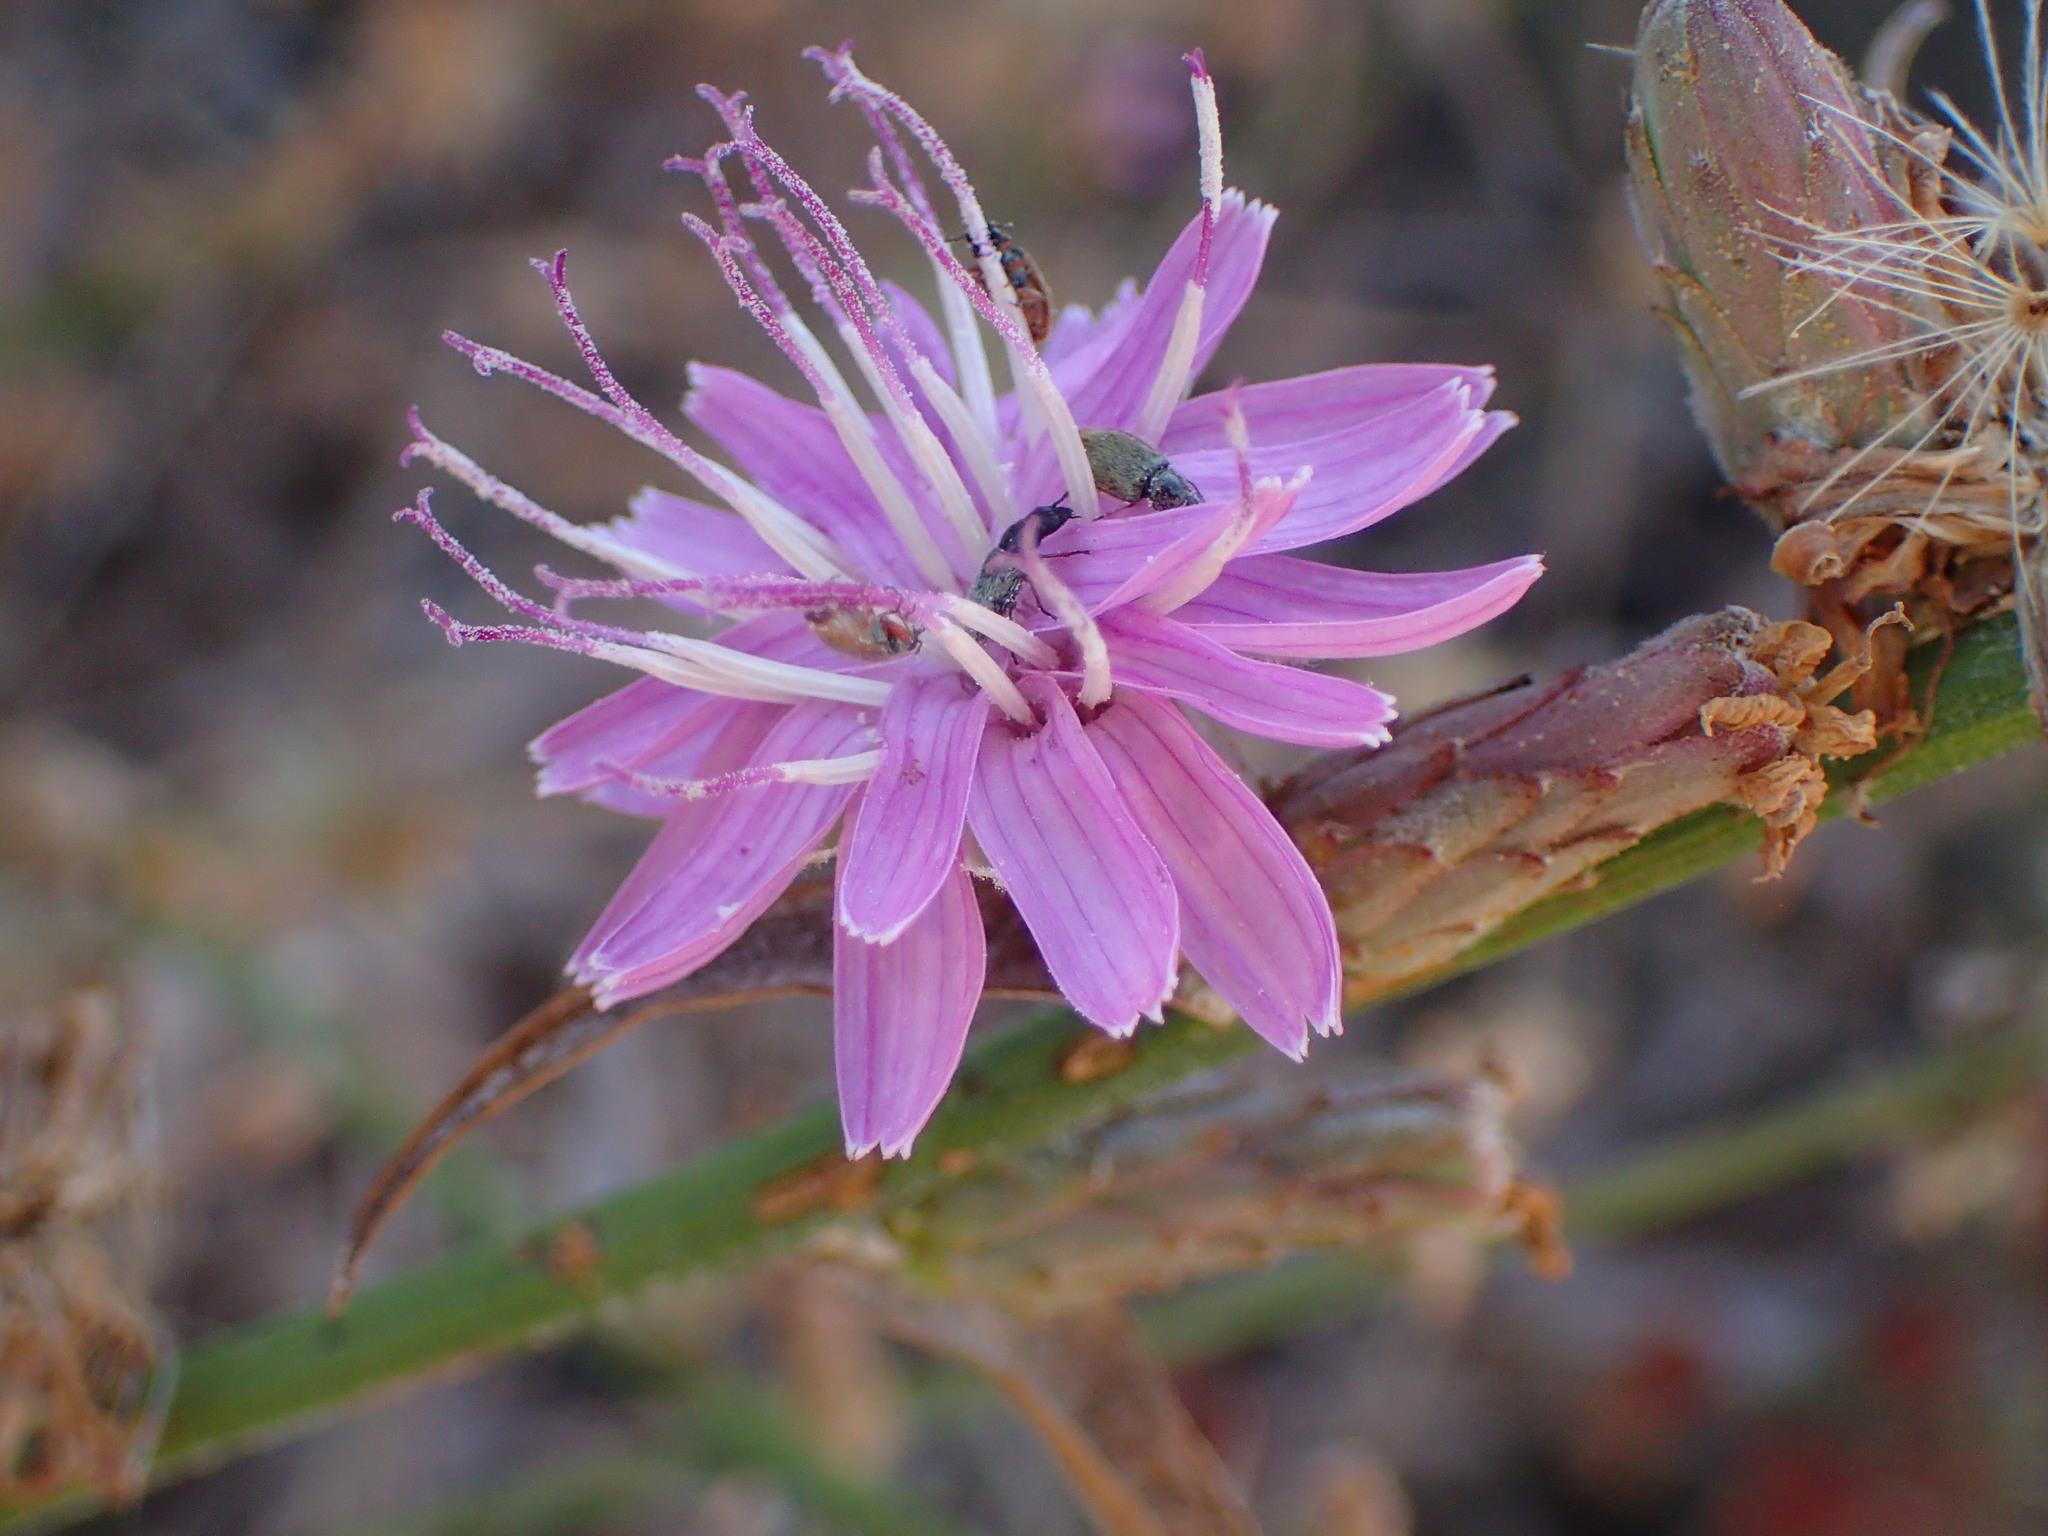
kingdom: Plantae
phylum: Tracheophyta
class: Magnoliopsida
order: Asterales
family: Asteraceae
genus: Stephanomeria
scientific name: Stephanomeria cichoriacea
